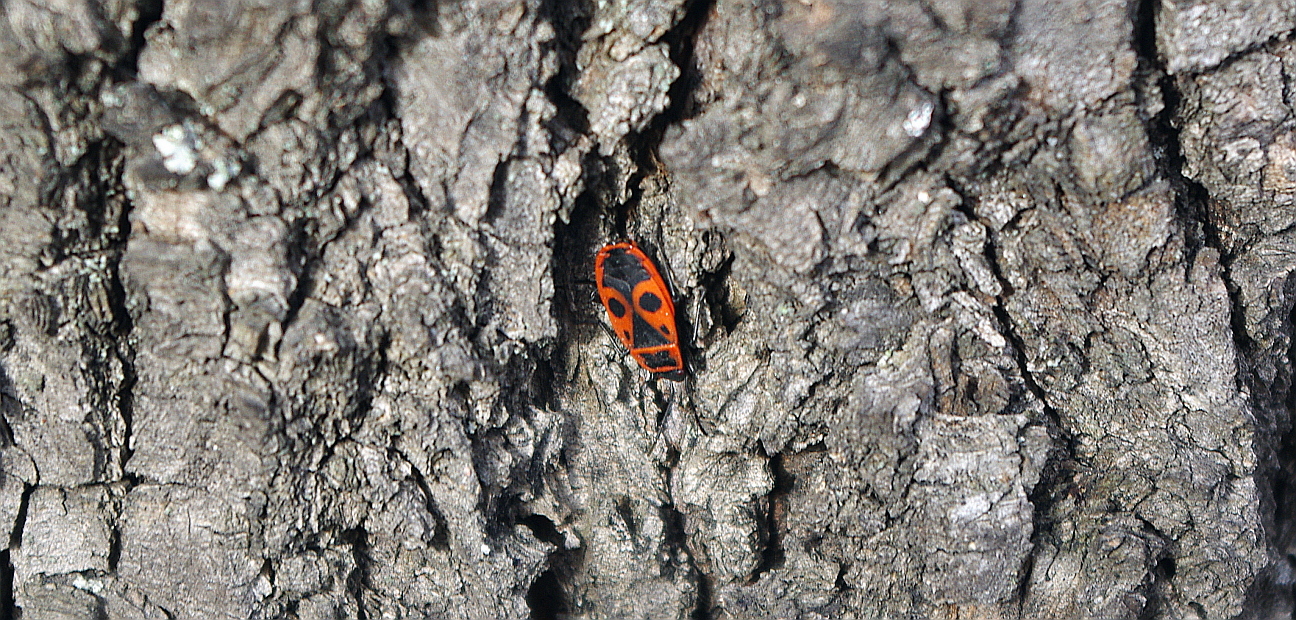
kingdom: Animalia
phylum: Arthropoda
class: Insecta
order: Hemiptera
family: Pyrrhocoridae
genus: Pyrrhocoris
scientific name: Pyrrhocoris apterus
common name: Firebug
